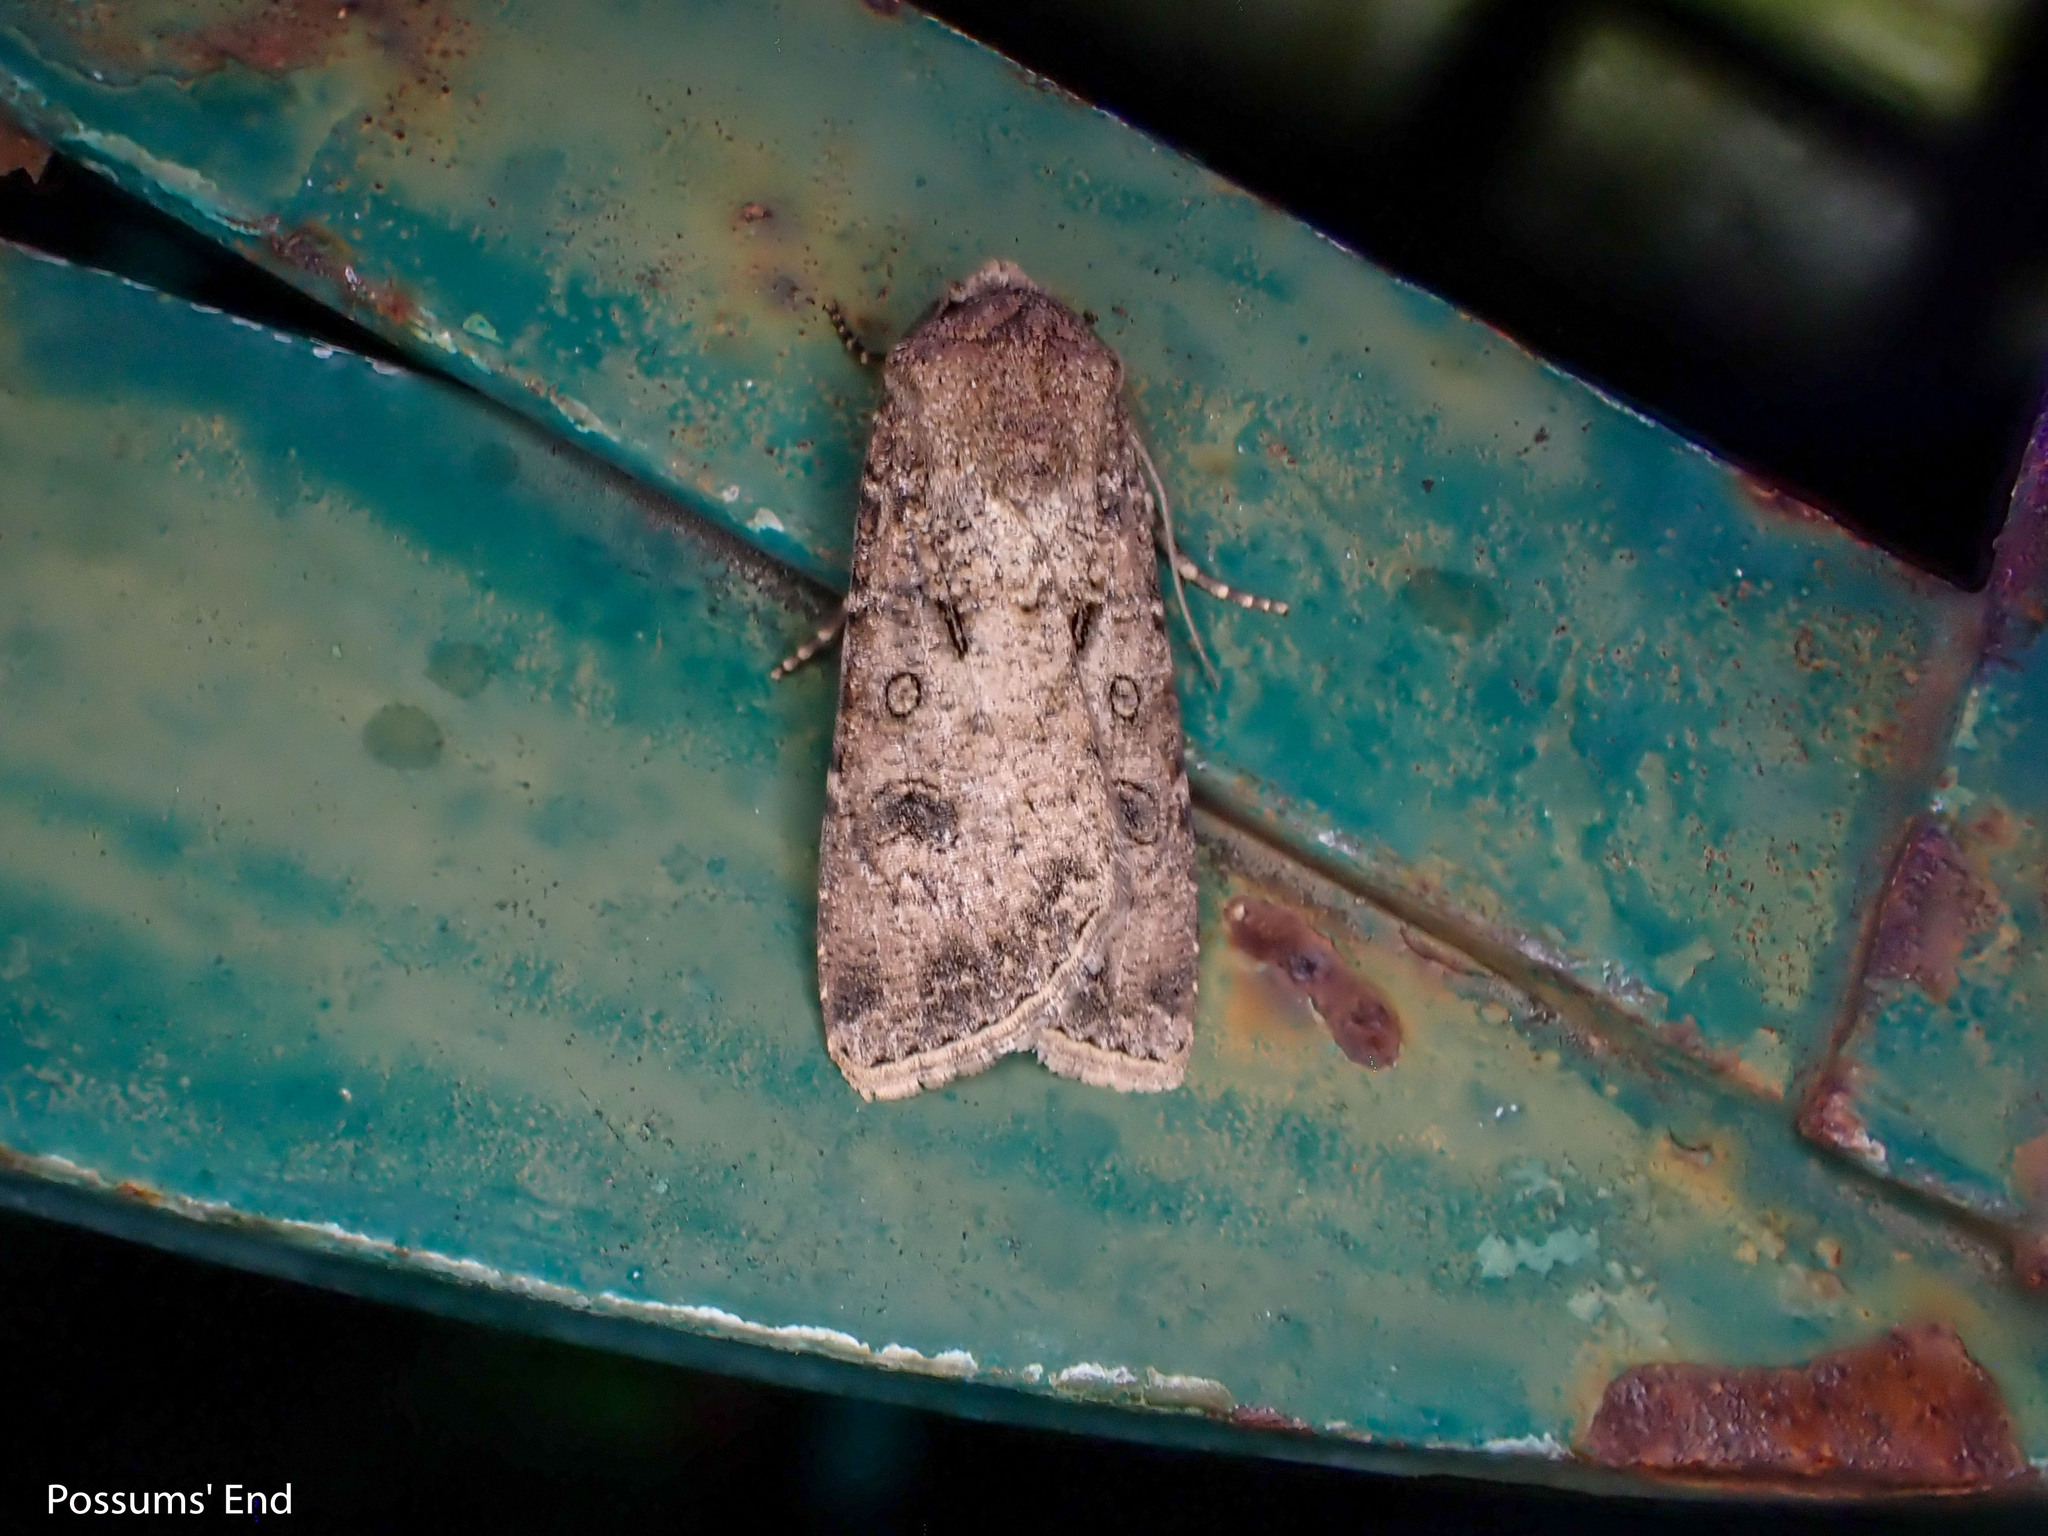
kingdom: Animalia
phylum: Arthropoda
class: Insecta
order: Lepidoptera
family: Noctuidae
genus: Agrotis
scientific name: Agrotis segetum
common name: Turnip moth
